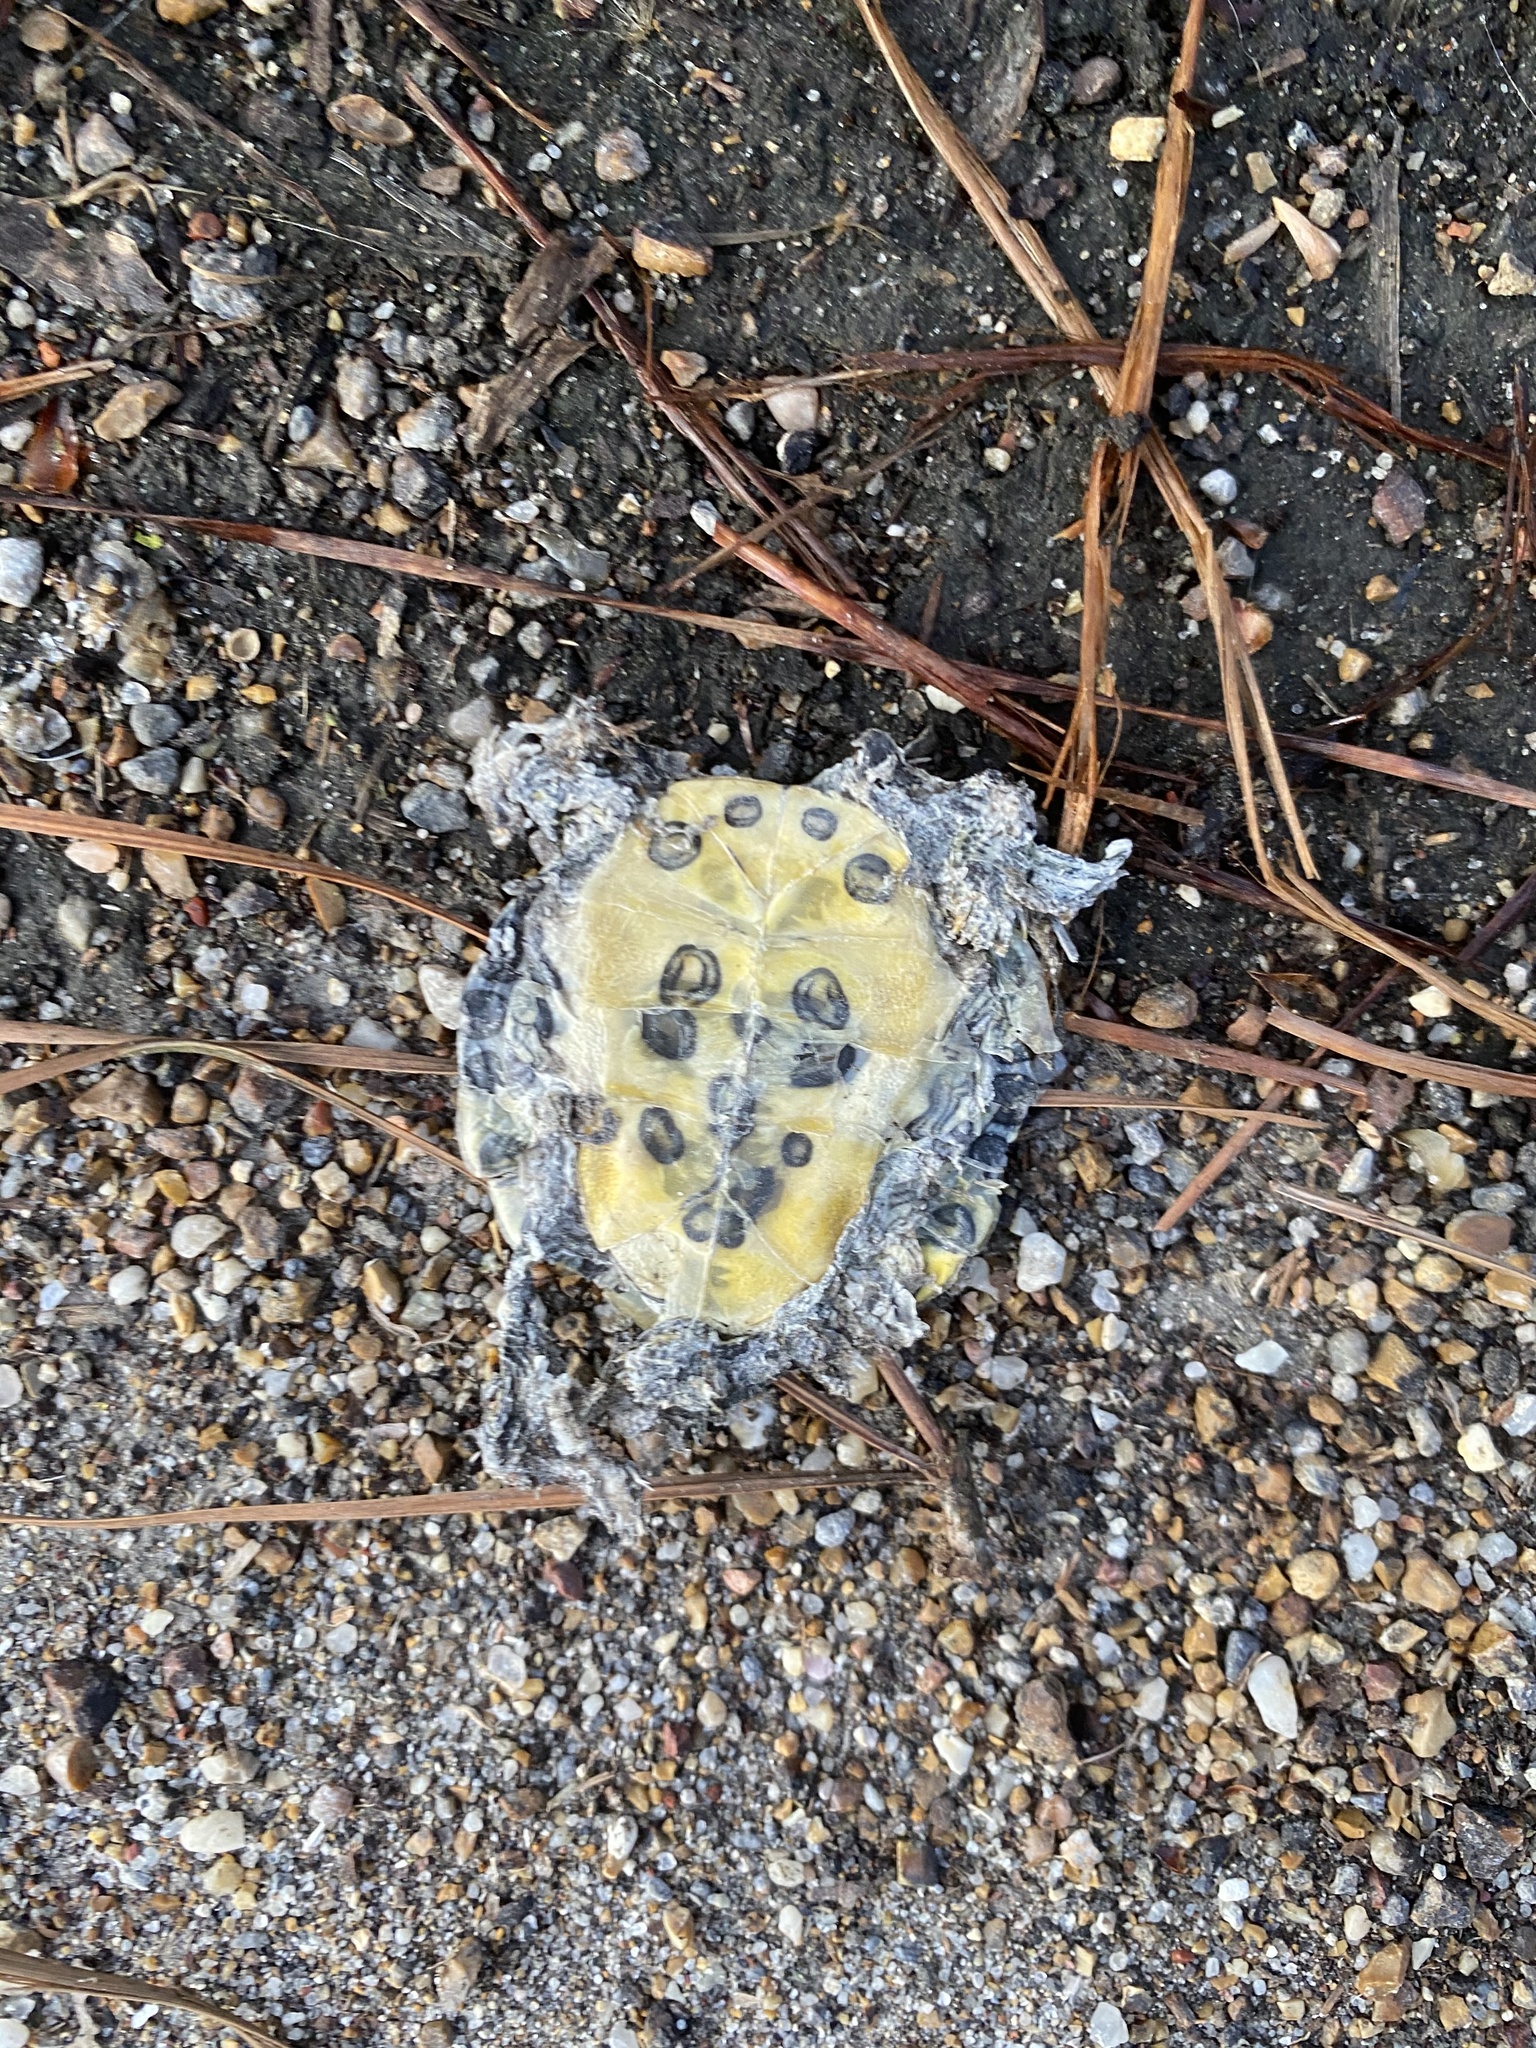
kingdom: Animalia
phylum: Chordata
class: Testudines
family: Emydidae
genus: Trachemys
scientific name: Trachemys scripta
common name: Slider
